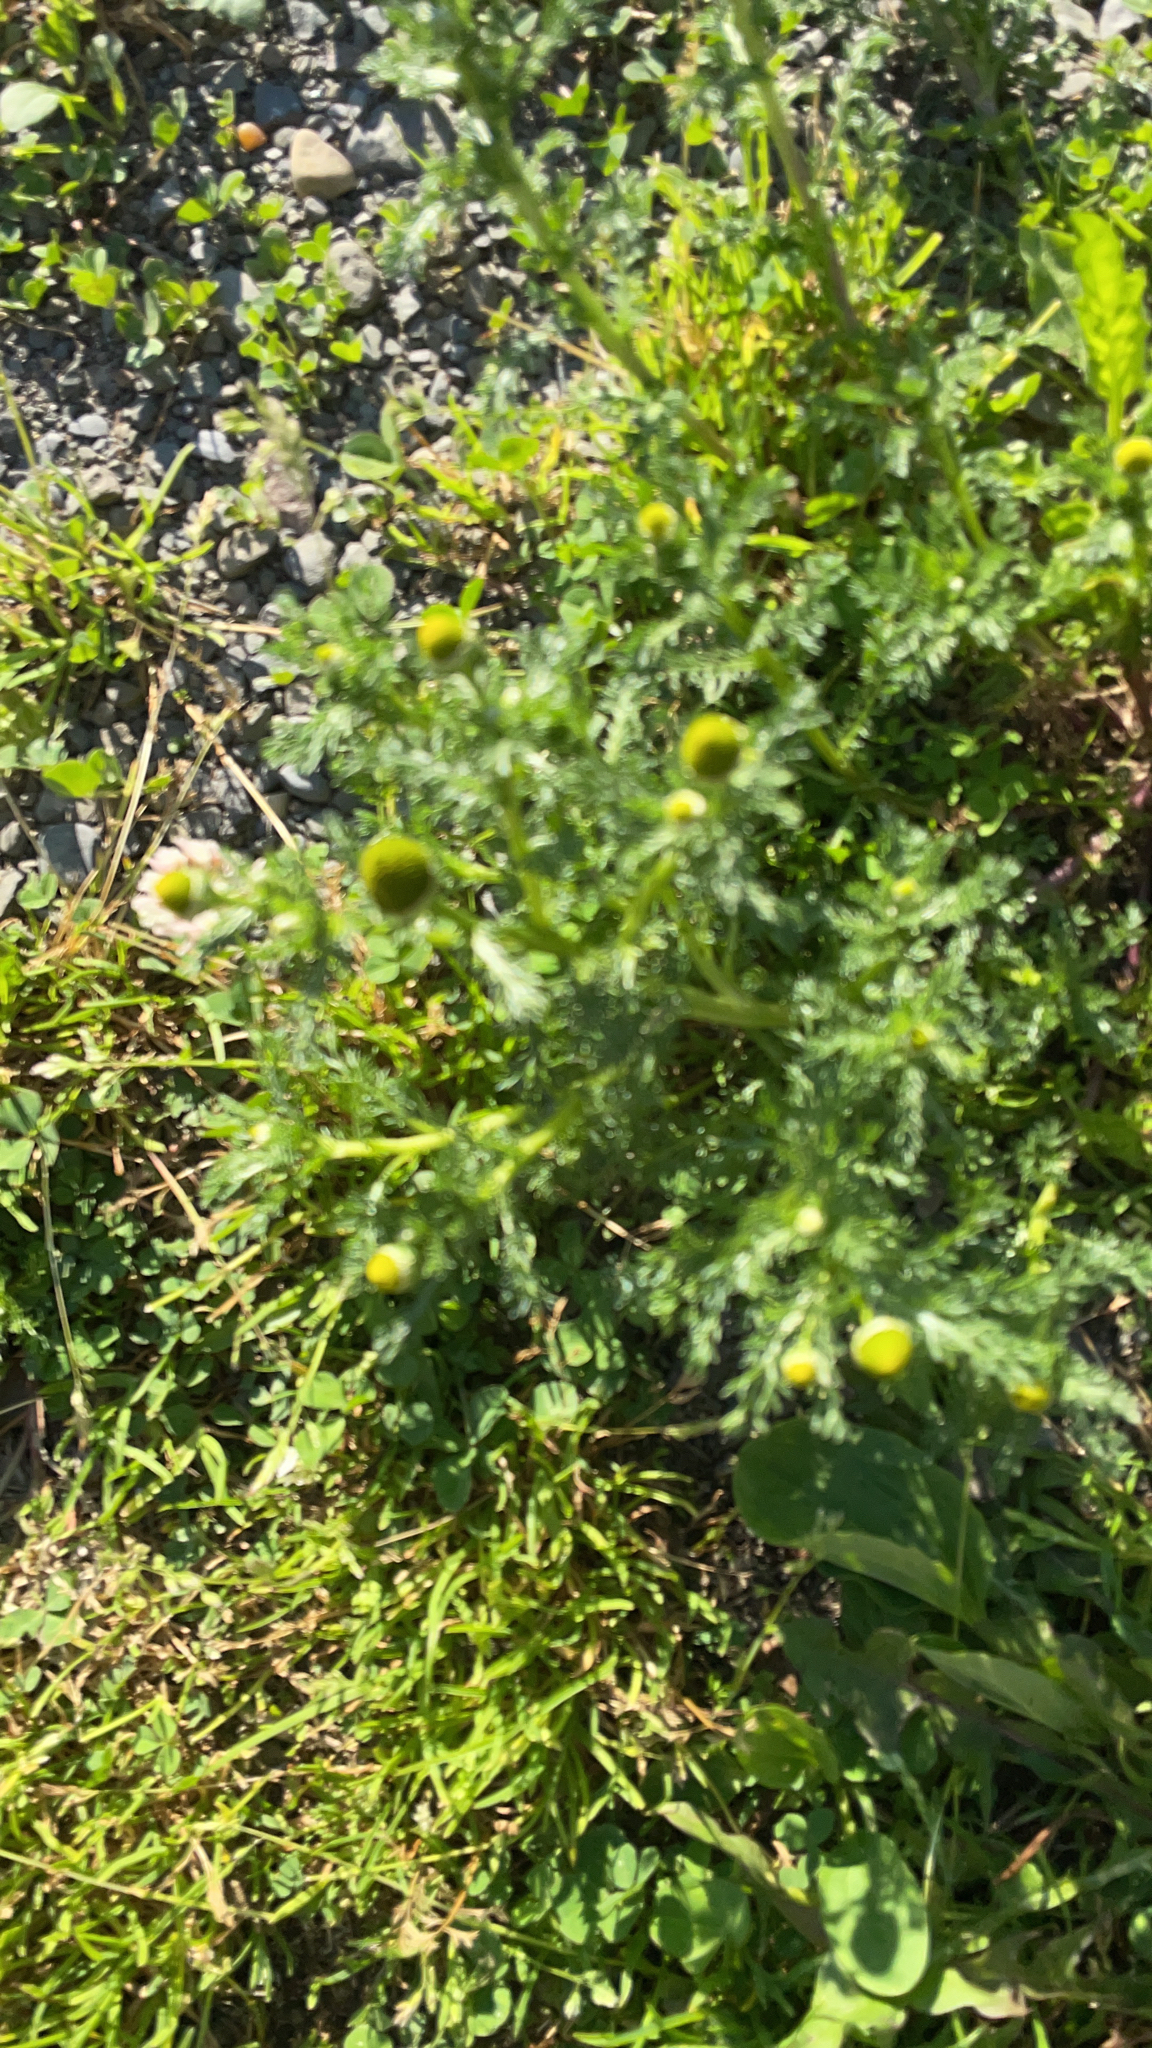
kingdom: Plantae
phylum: Tracheophyta
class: Magnoliopsida
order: Asterales
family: Asteraceae
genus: Matricaria
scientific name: Matricaria discoidea
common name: Disc mayweed
